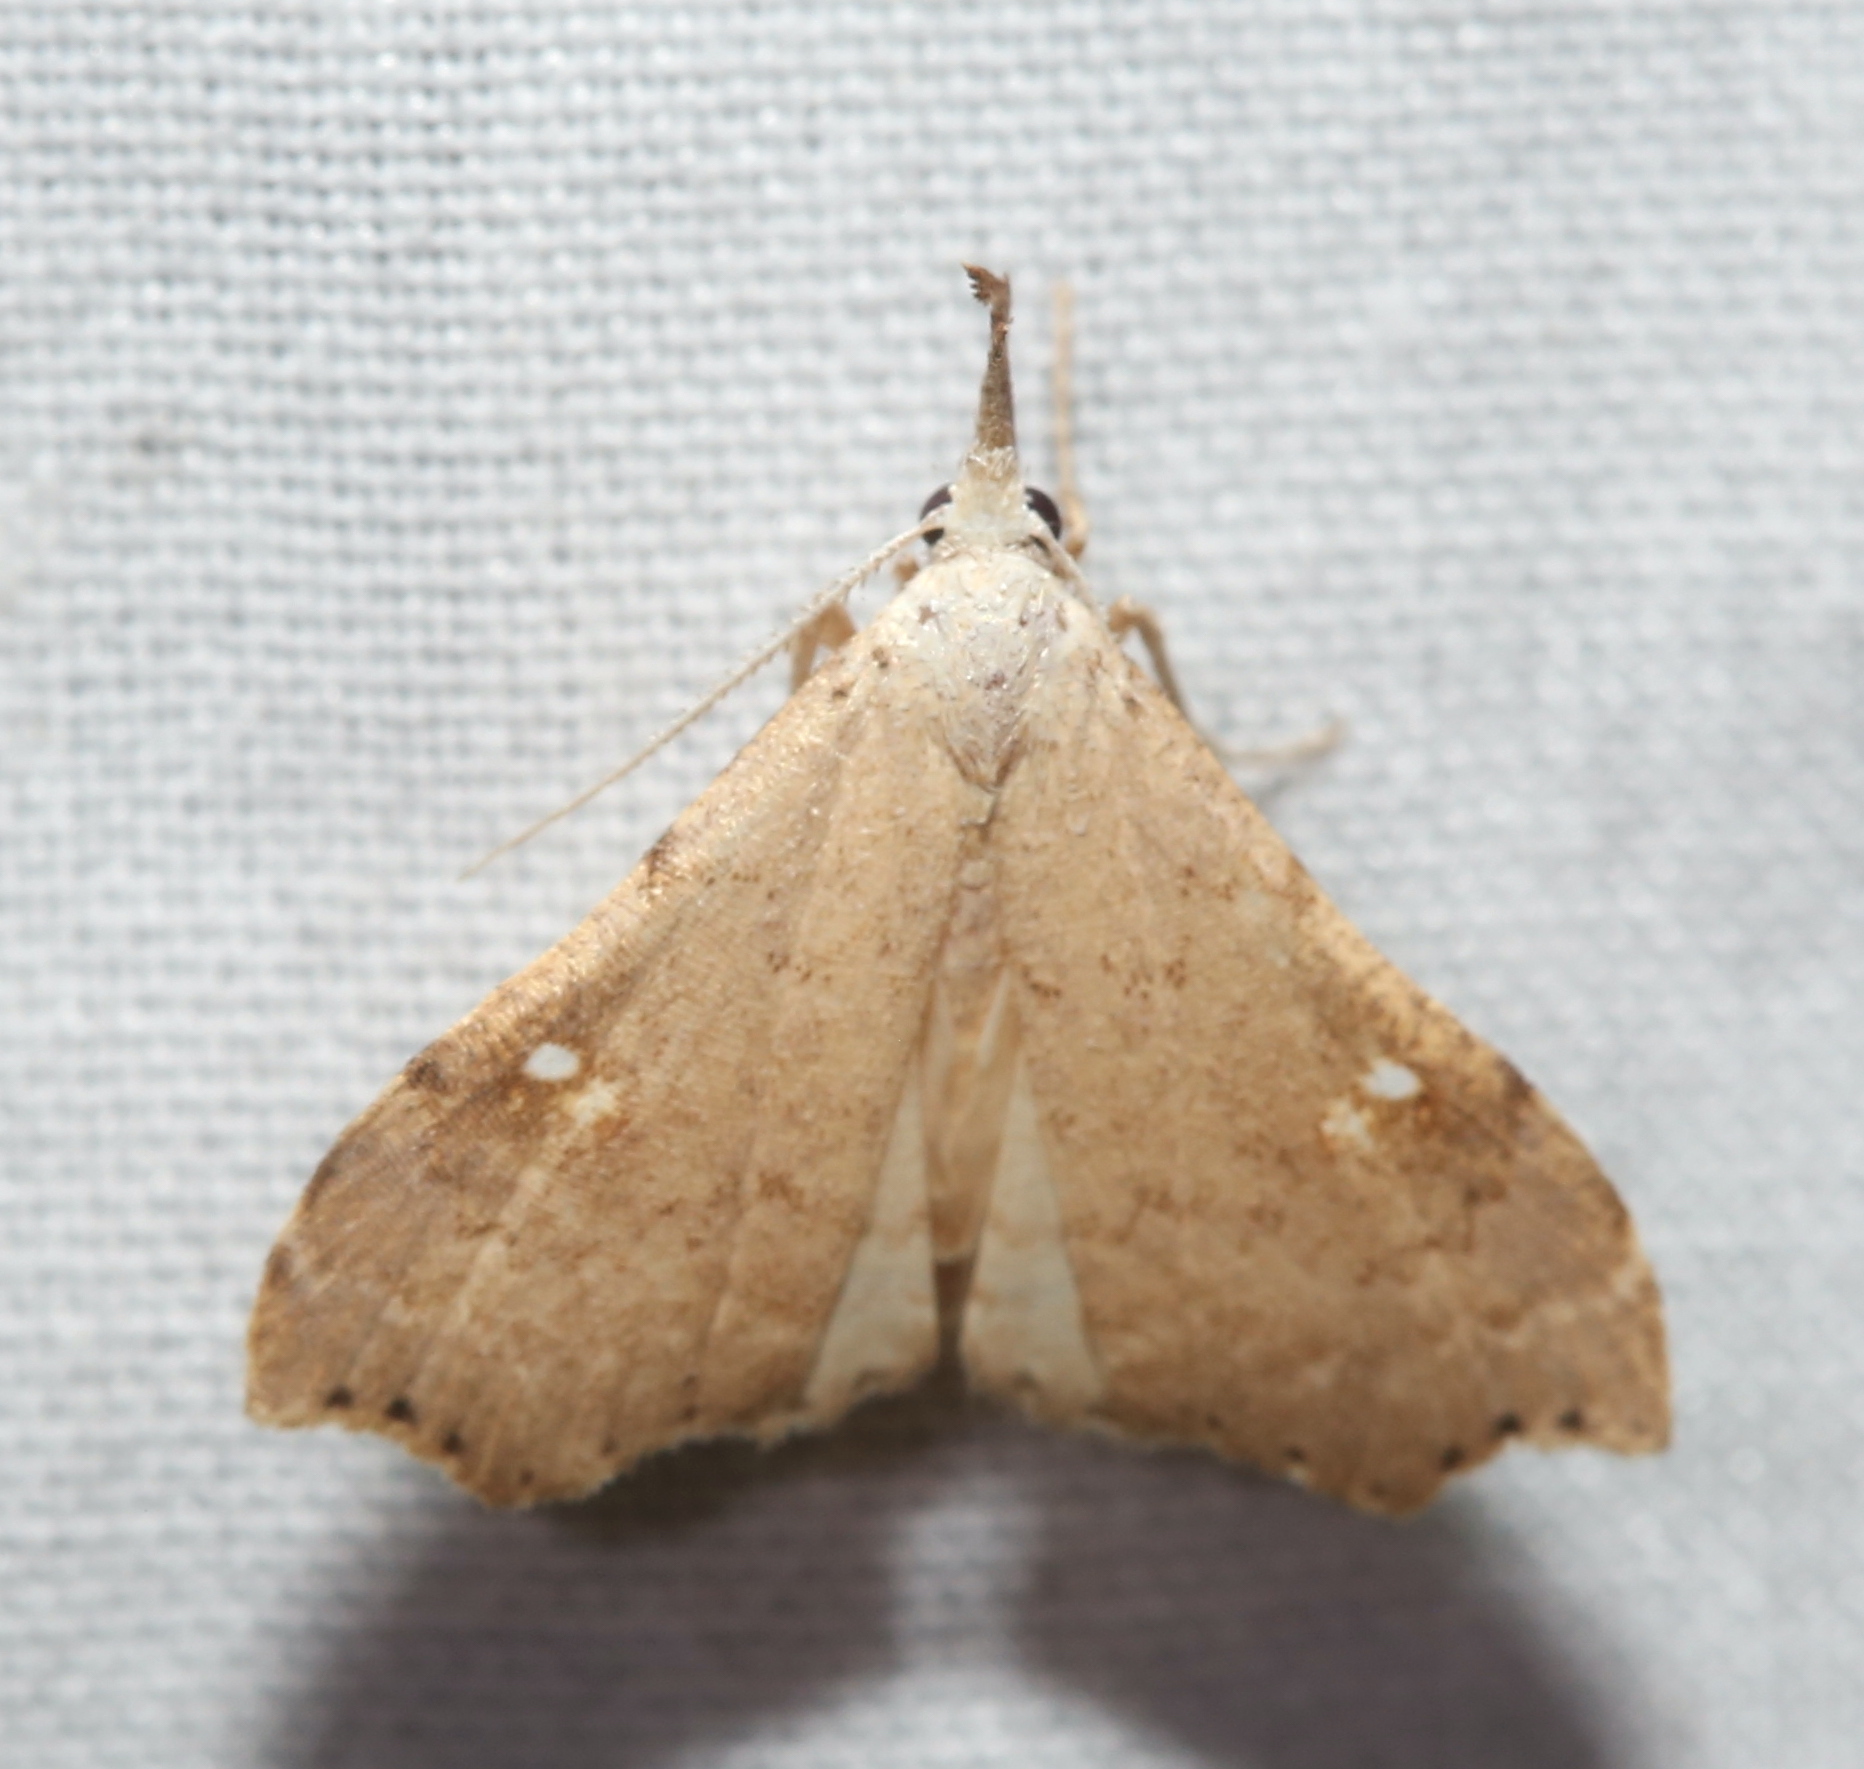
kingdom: Animalia
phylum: Arthropoda
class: Insecta
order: Lepidoptera
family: Erebidae
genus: Redectis
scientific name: Redectis vitrea
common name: White-spotted redectis
